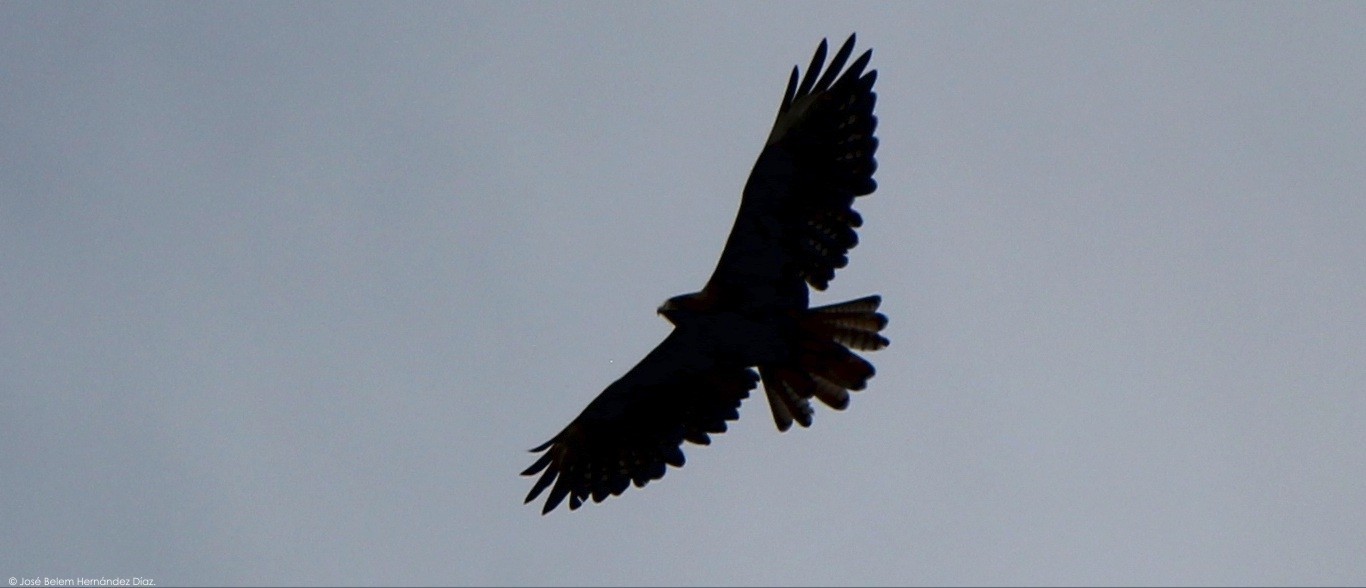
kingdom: Animalia
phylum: Chordata
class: Aves
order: Accipitriformes
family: Accipitridae
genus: Buteo
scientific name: Buteo jamaicensis
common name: Red-tailed hawk
